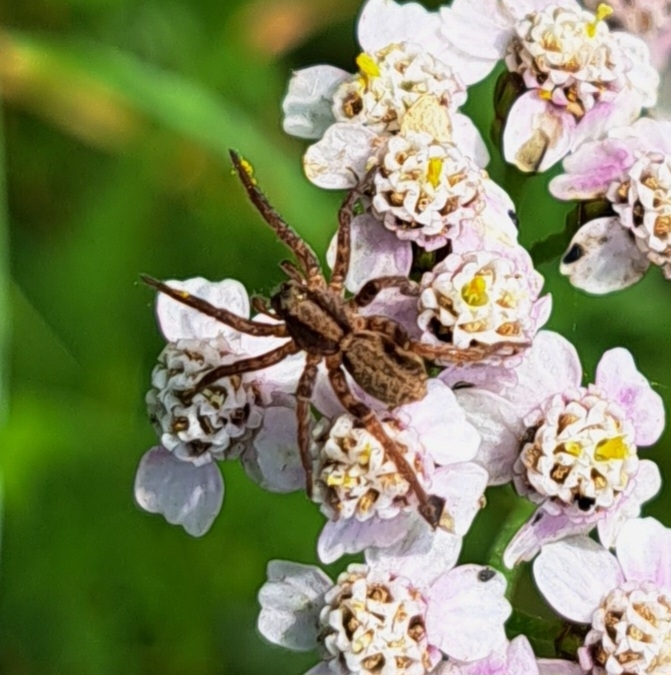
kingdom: Animalia
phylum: Arthropoda
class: Arachnida
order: Araneae
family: Lycosidae
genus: Alopecosa
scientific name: Alopecosa
